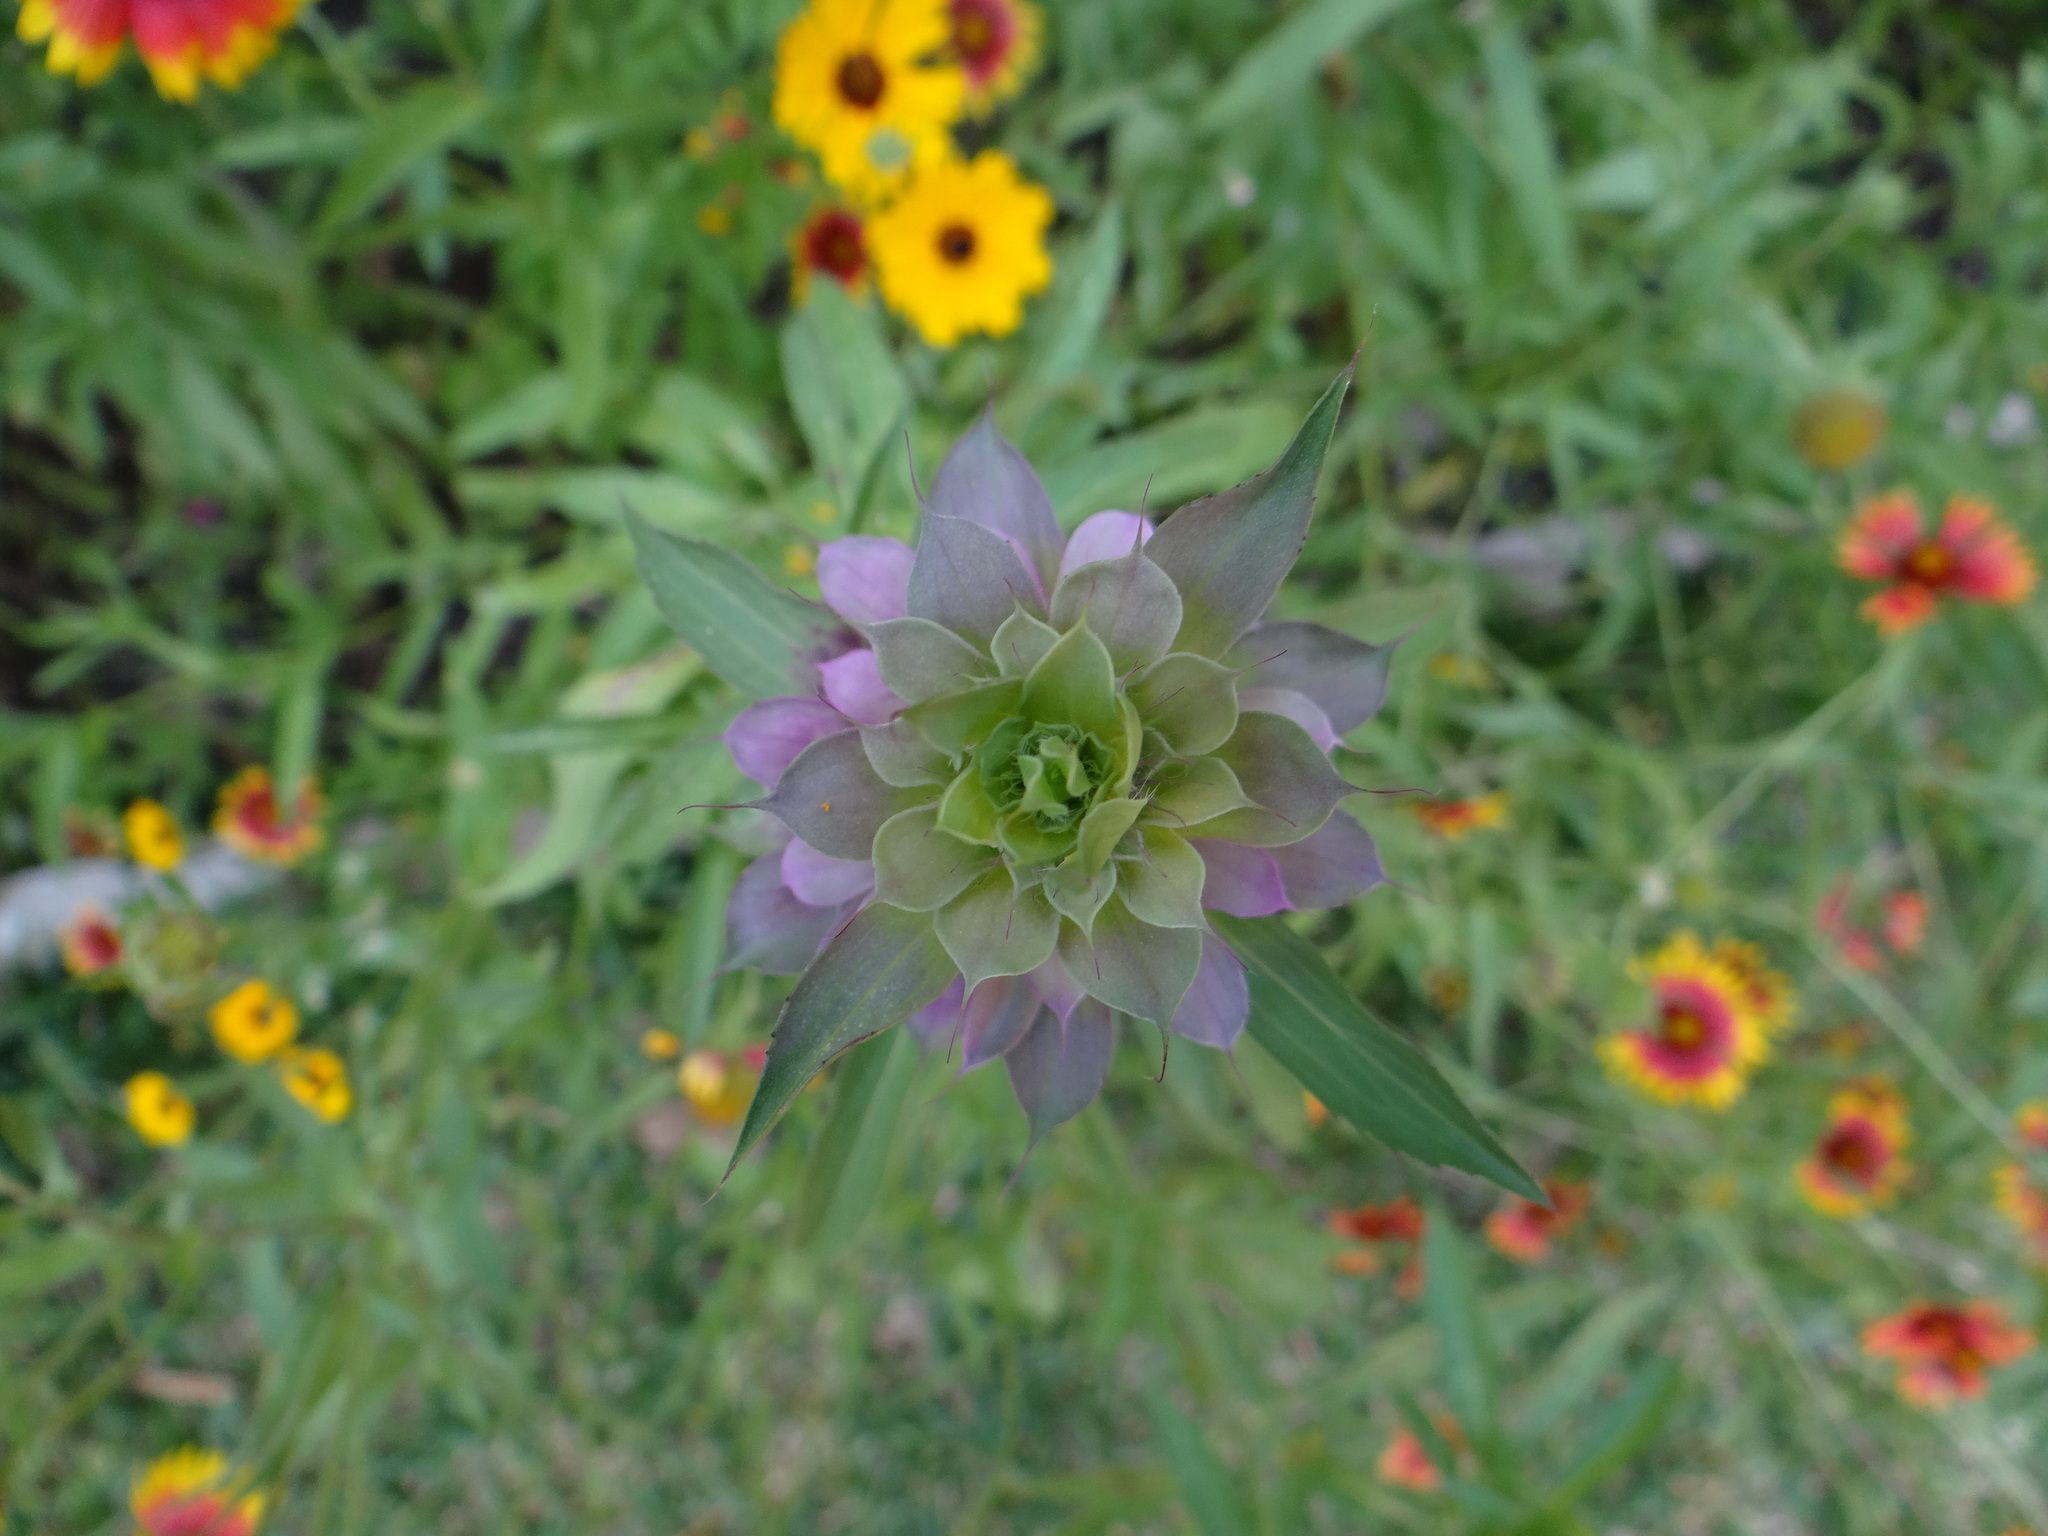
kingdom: Plantae
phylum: Tracheophyta
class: Magnoliopsida
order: Lamiales
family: Lamiaceae
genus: Monarda
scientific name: Monarda citriodora
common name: Lemon beebalm
